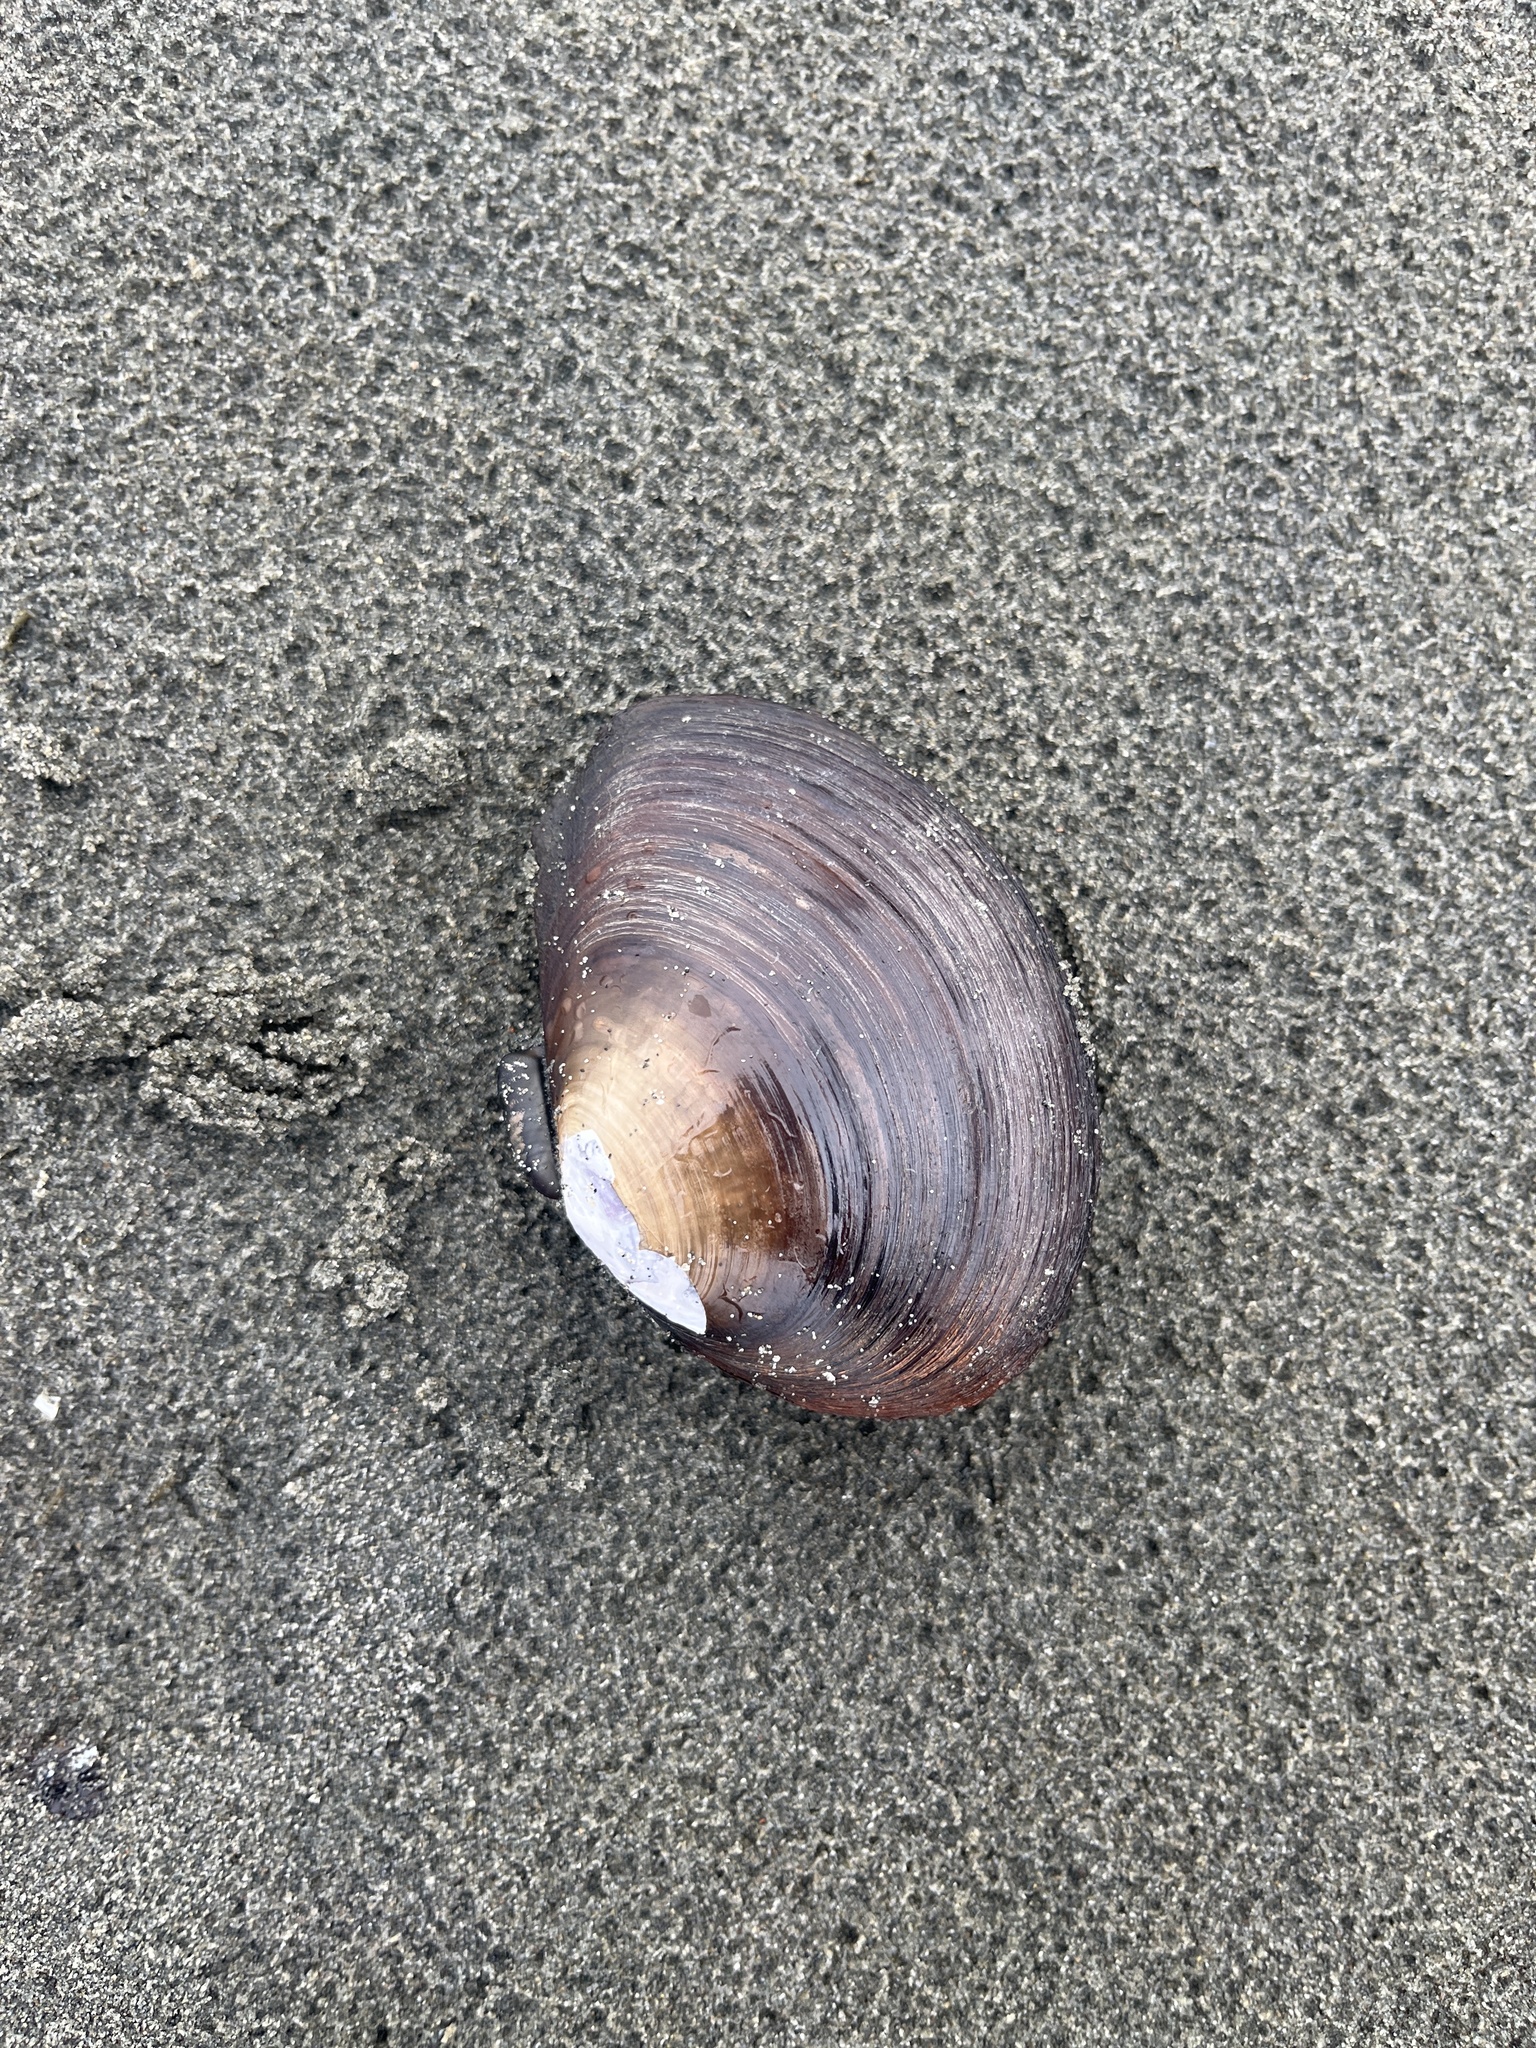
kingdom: Animalia
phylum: Mollusca
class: Bivalvia
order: Cardiida
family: Psammobiidae
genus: Nuttallia
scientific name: Nuttallia obscurata
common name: Purple mahogany-clam
